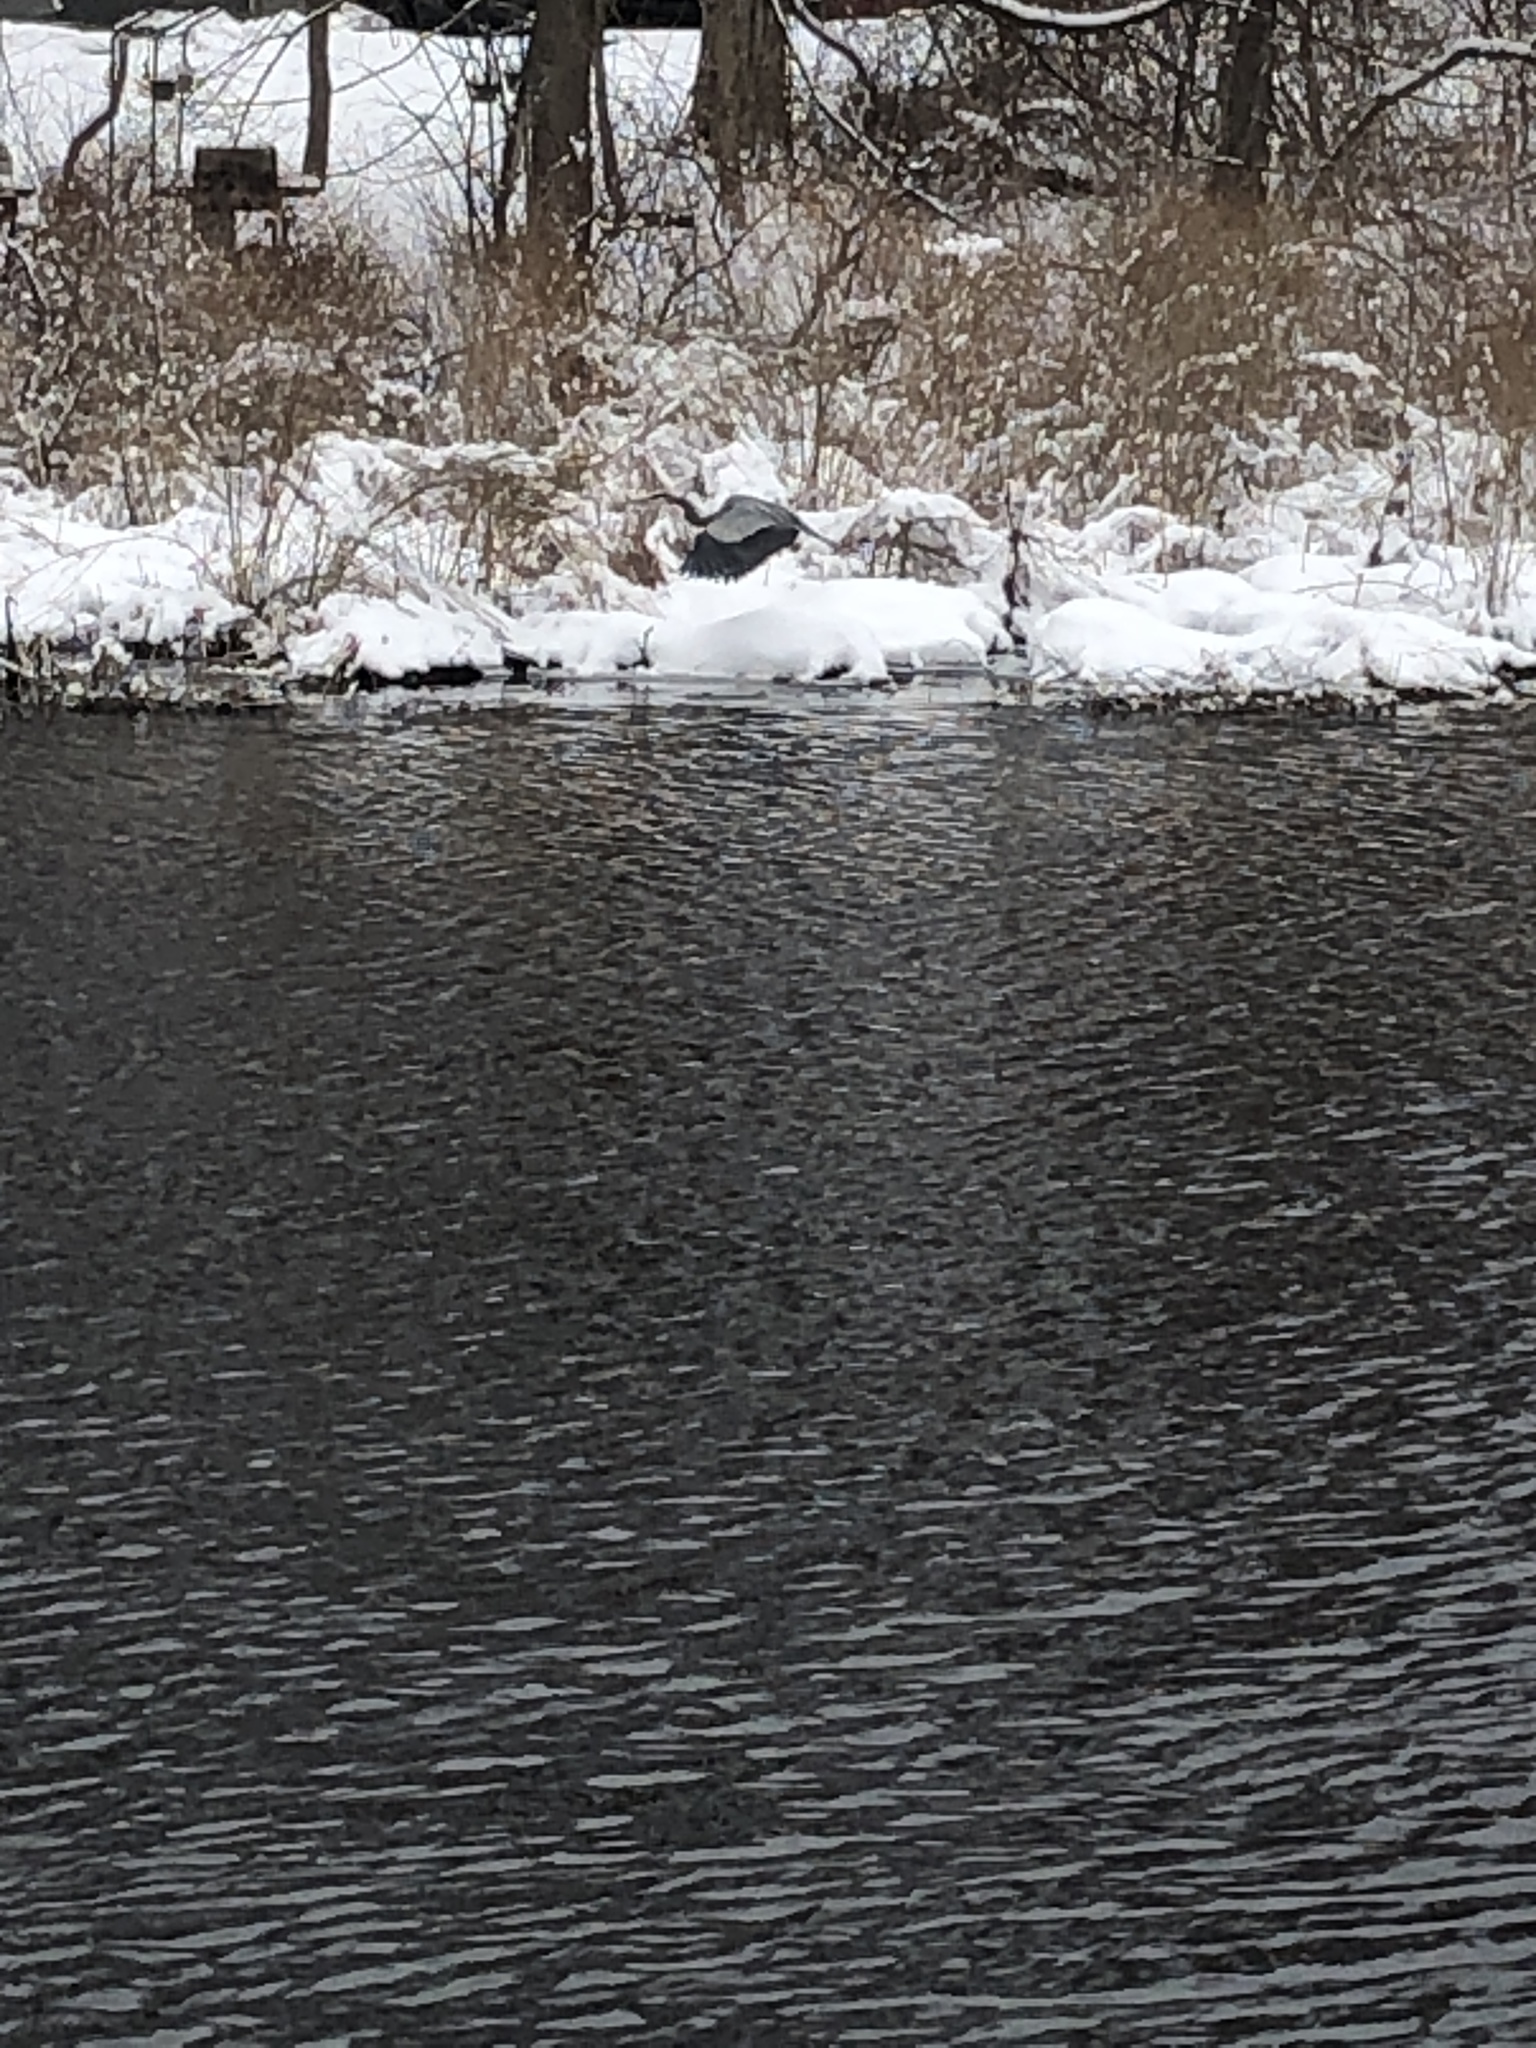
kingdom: Animalia
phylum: Chordata
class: Aves
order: Pelecaniformes
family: Ardeidae
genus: Ardea
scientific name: Ardea herodias
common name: Great blue heron
